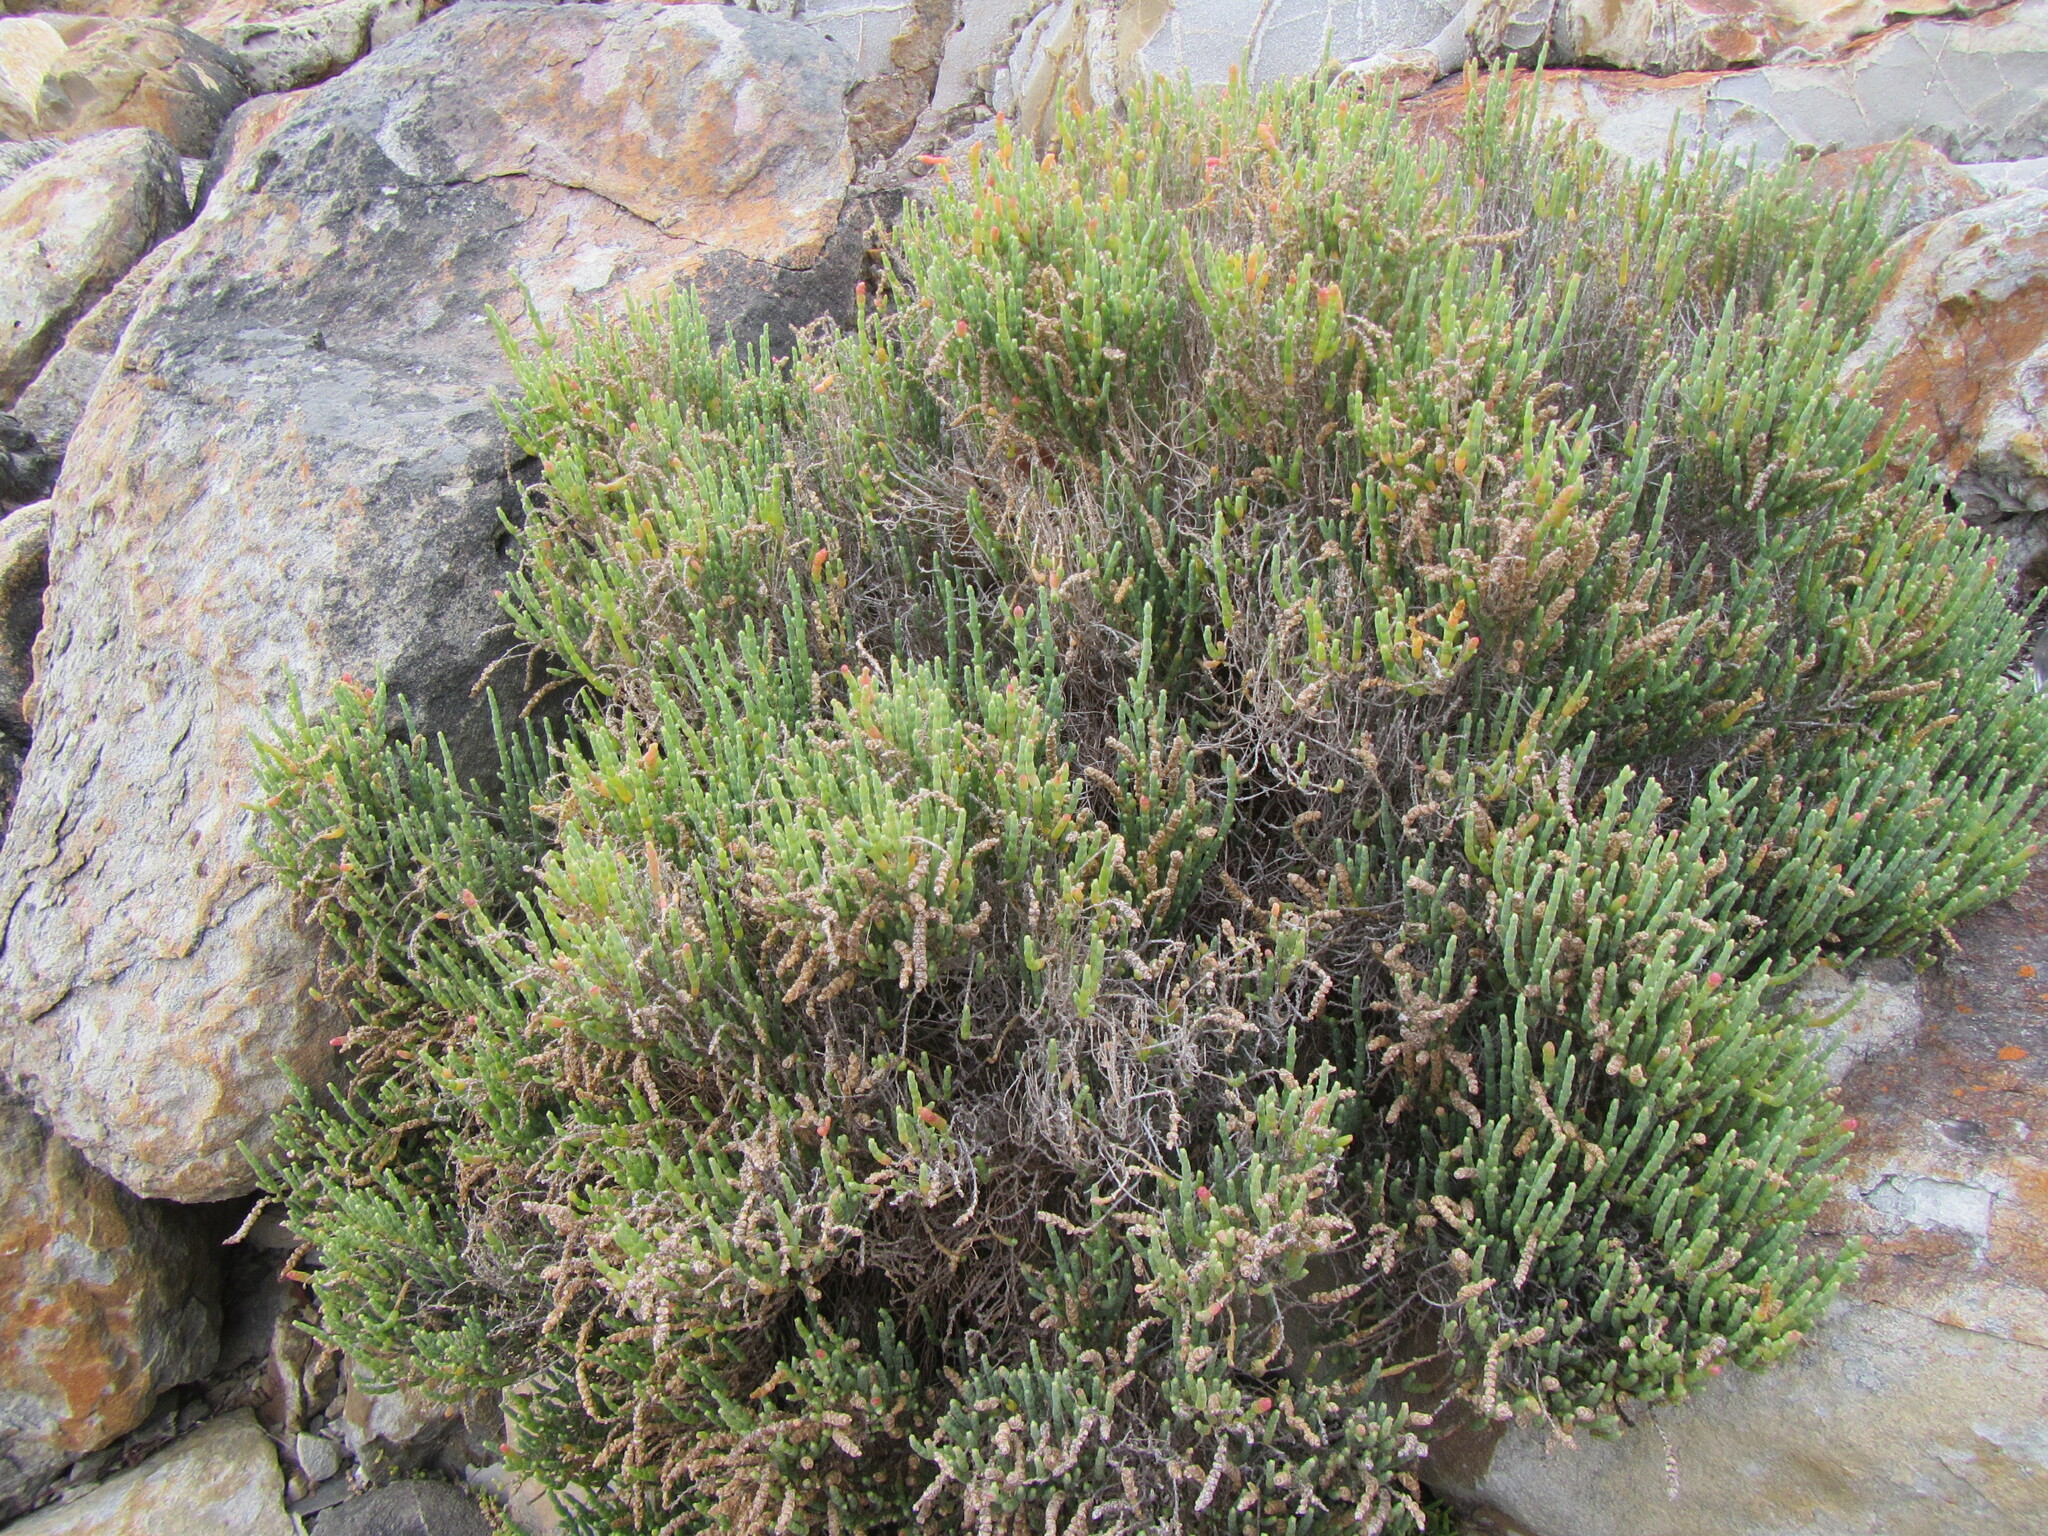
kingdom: Plantae
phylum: Tracheophyta
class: Magnoliopsida
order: Caryophyllales
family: Amaranthaceae
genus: Salicornia
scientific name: Salicornia littorea
